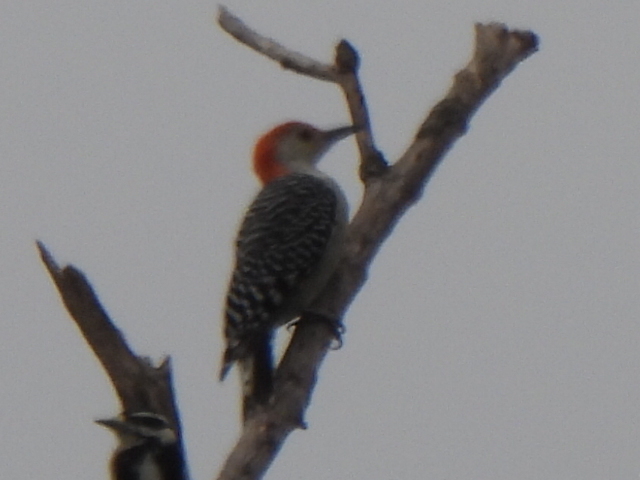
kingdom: Animalia
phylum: Chordata
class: Aves
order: Piciformes
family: Picidae
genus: Melanerpes
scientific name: Melanerpes carolinus
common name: Red-bellied woodpecker
